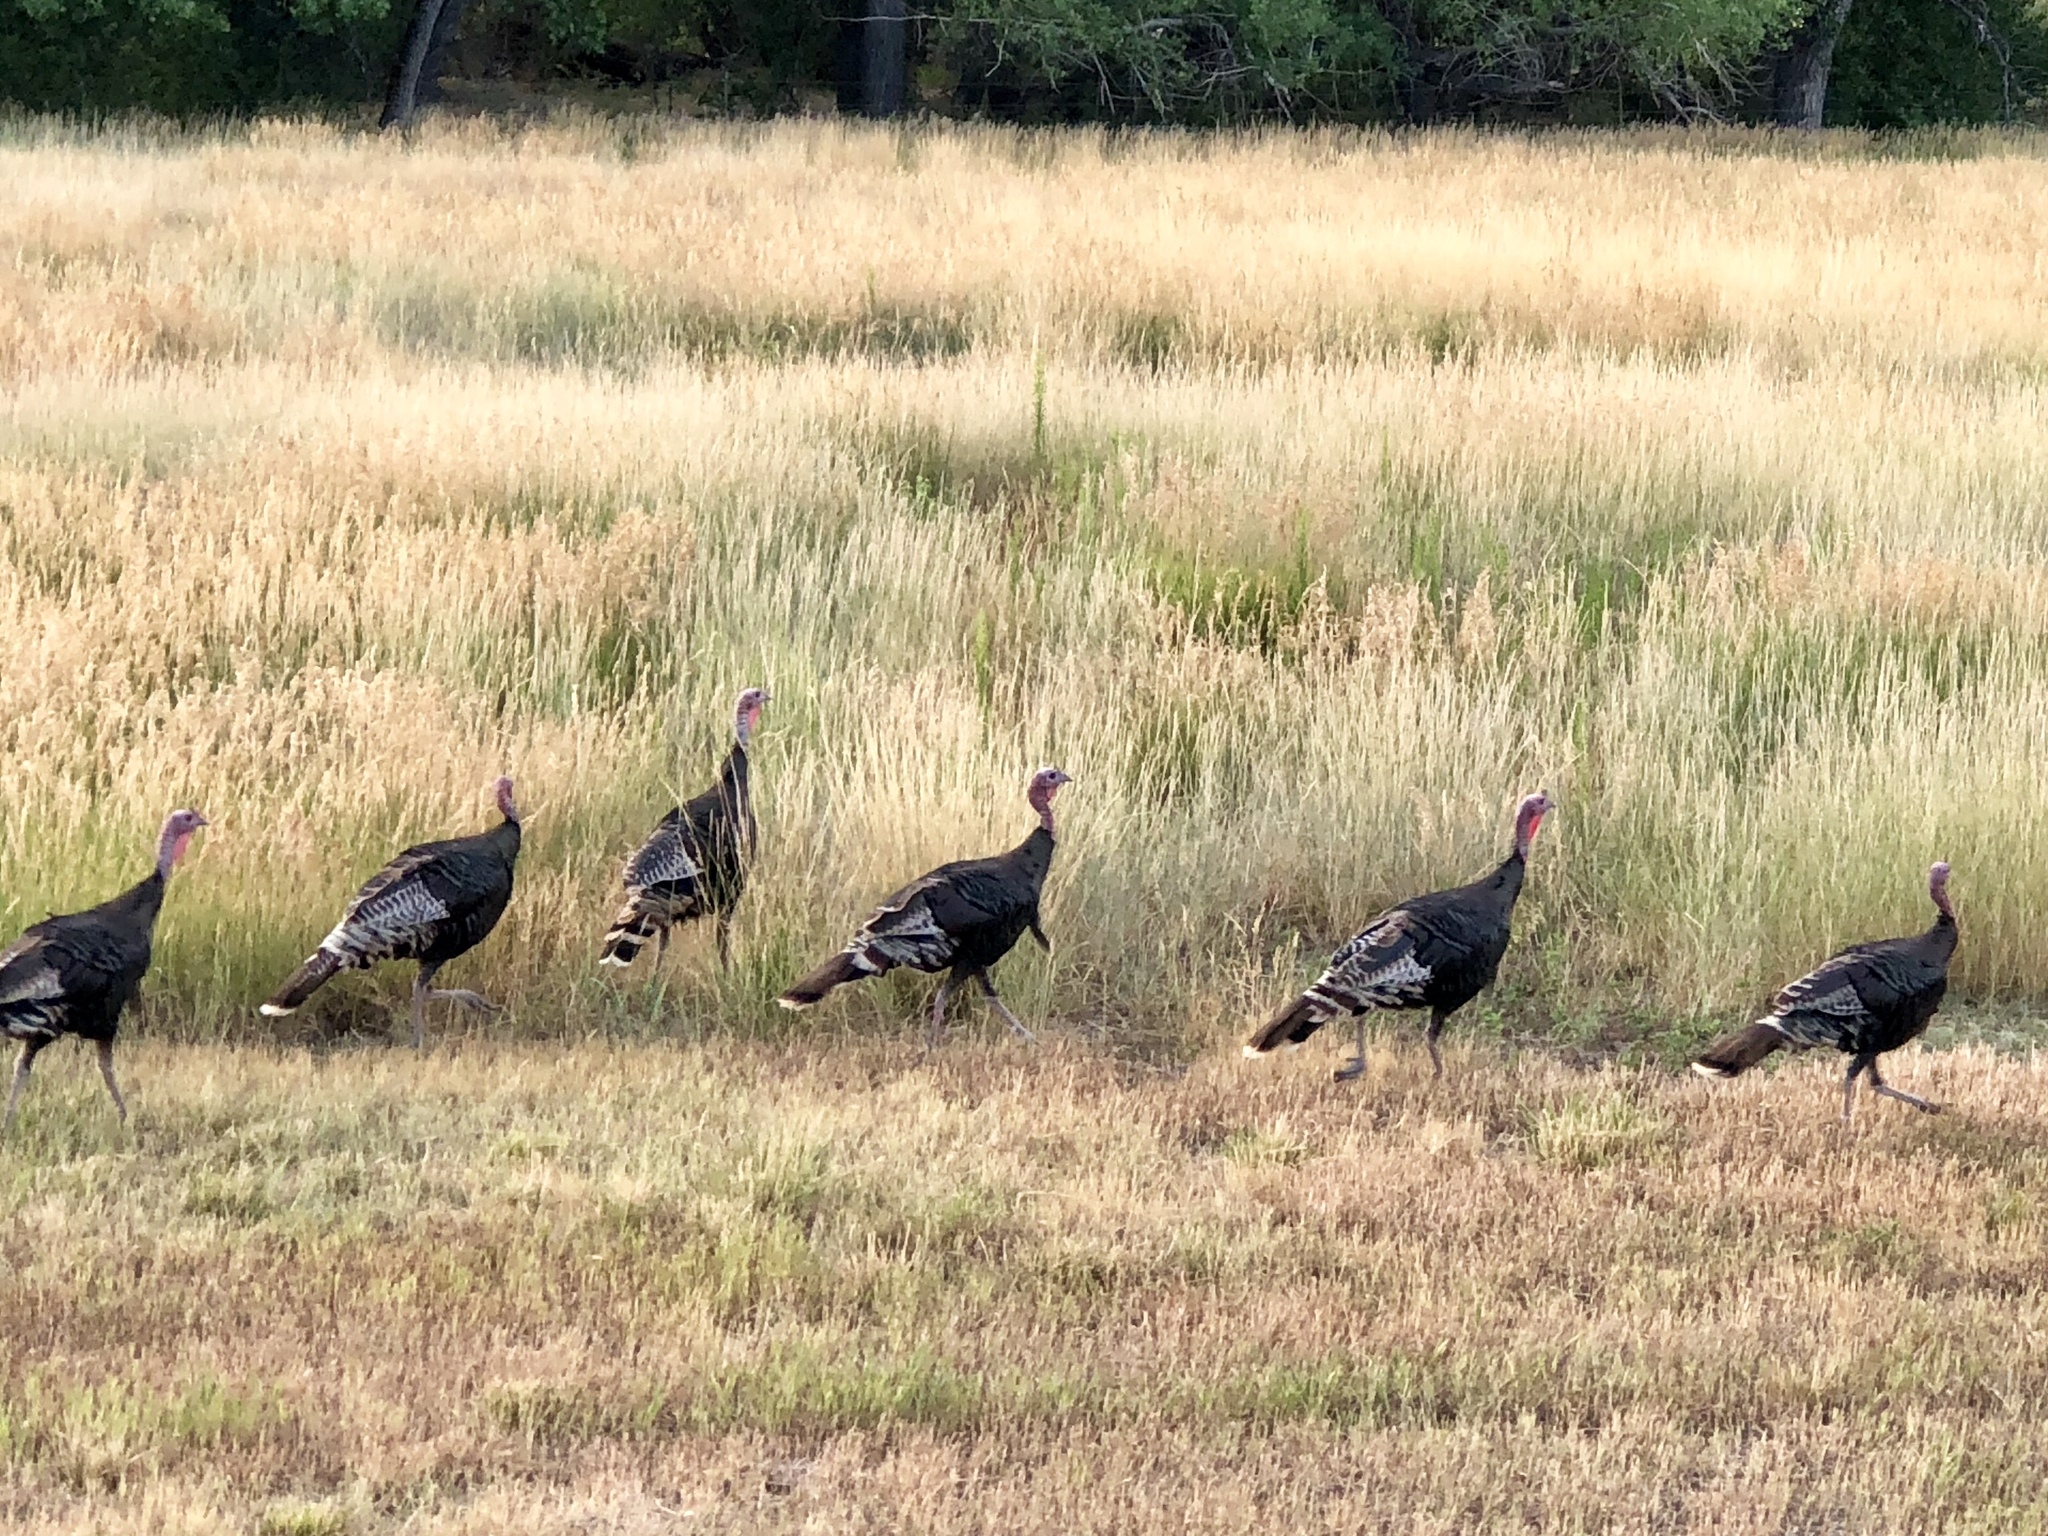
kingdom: Animalia
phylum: Chordata
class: Aves
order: Galliformes
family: Phasianidae
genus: Meleagris
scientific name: Meleagris gallopavo
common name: Wild turkey
